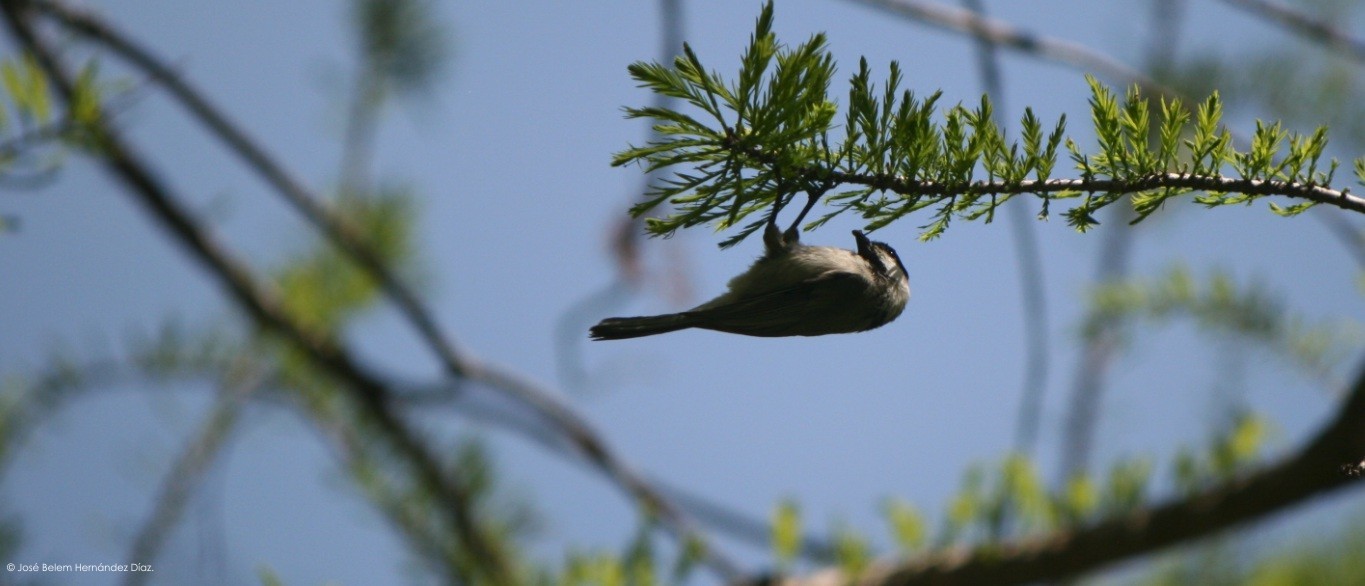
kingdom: Animalia
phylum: Chordata
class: Aves
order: Passeriformes
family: Paridae
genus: Poecile
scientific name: Poecile
